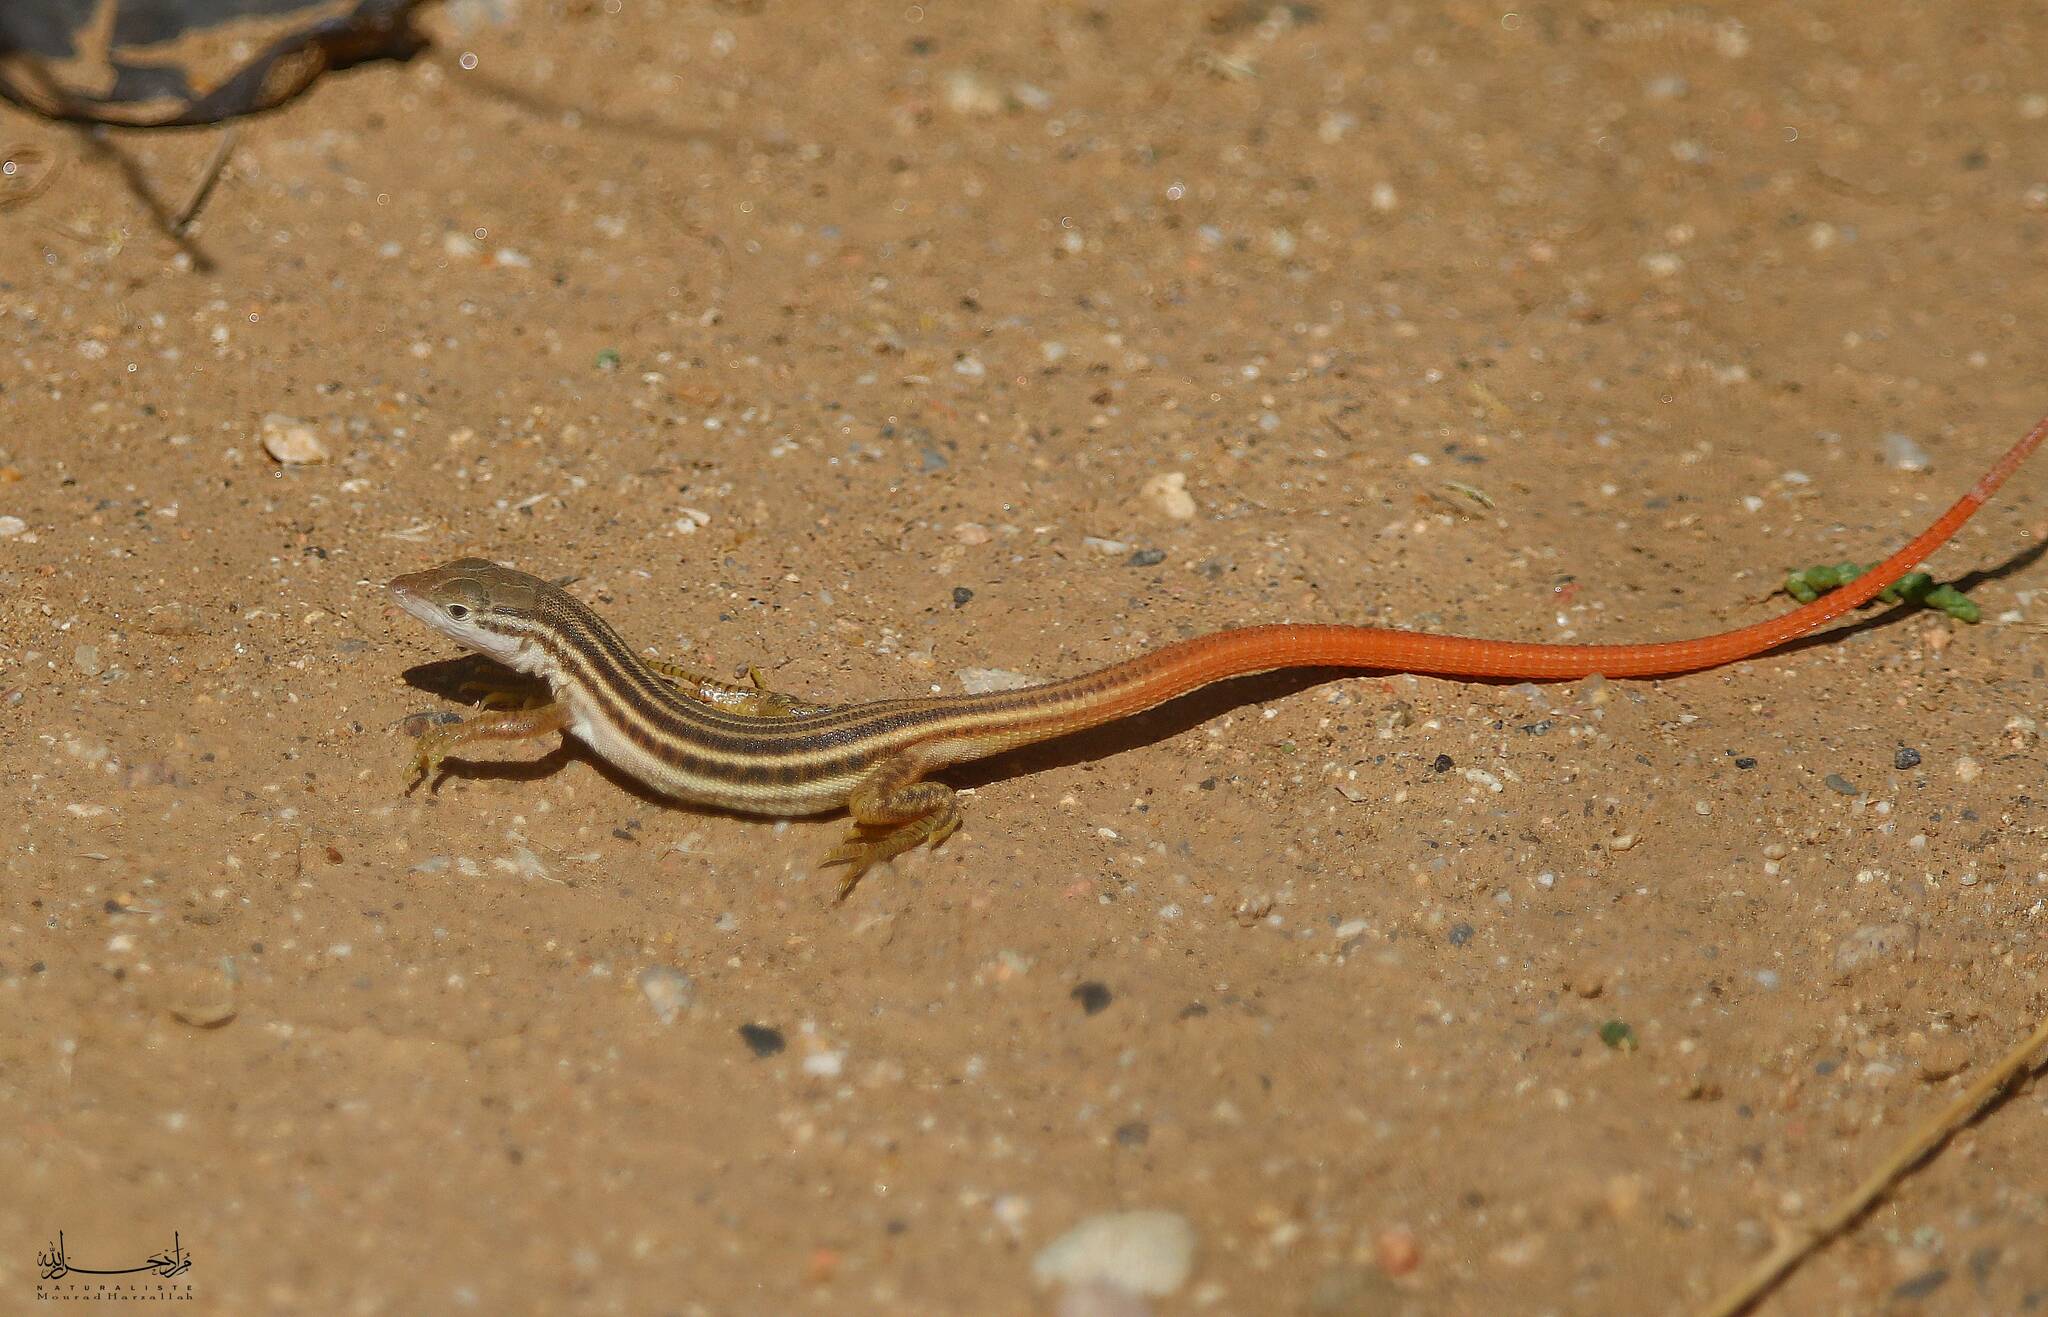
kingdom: Animalia
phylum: Chordata
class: Squamata
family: Lacertidae
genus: Philochortus
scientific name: Philochortus zolii
